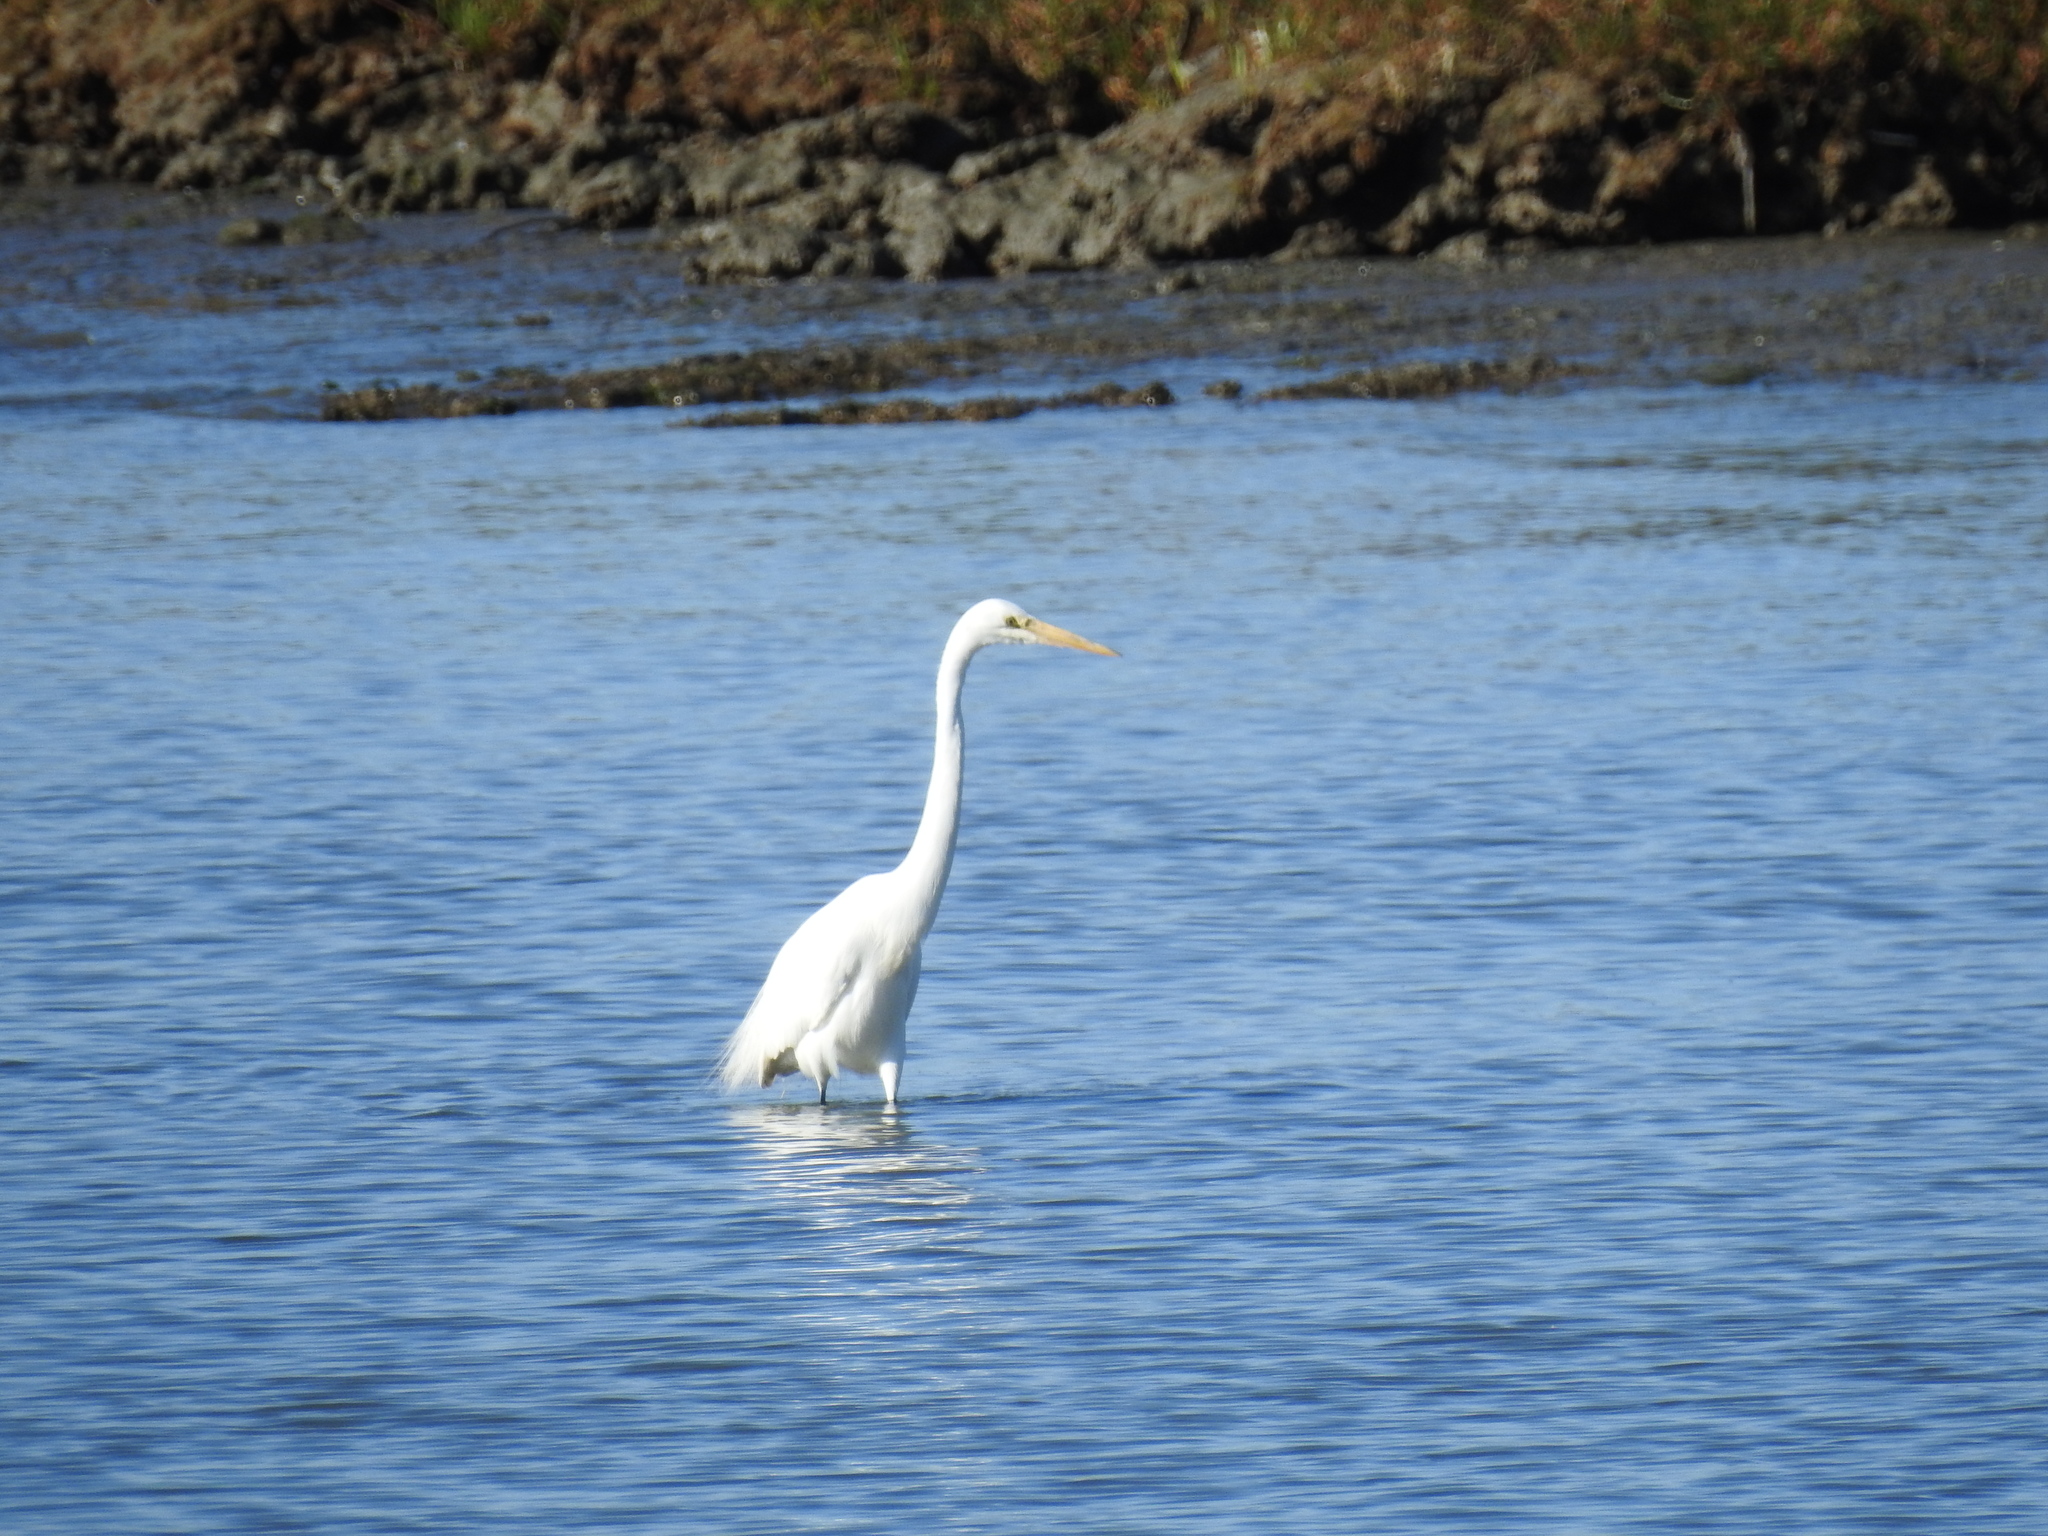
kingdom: Animalia
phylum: Chordata
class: Aves
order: Pelecaniformes
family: Ardeidae
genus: Ardea
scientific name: Ardea alba
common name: Great egret
